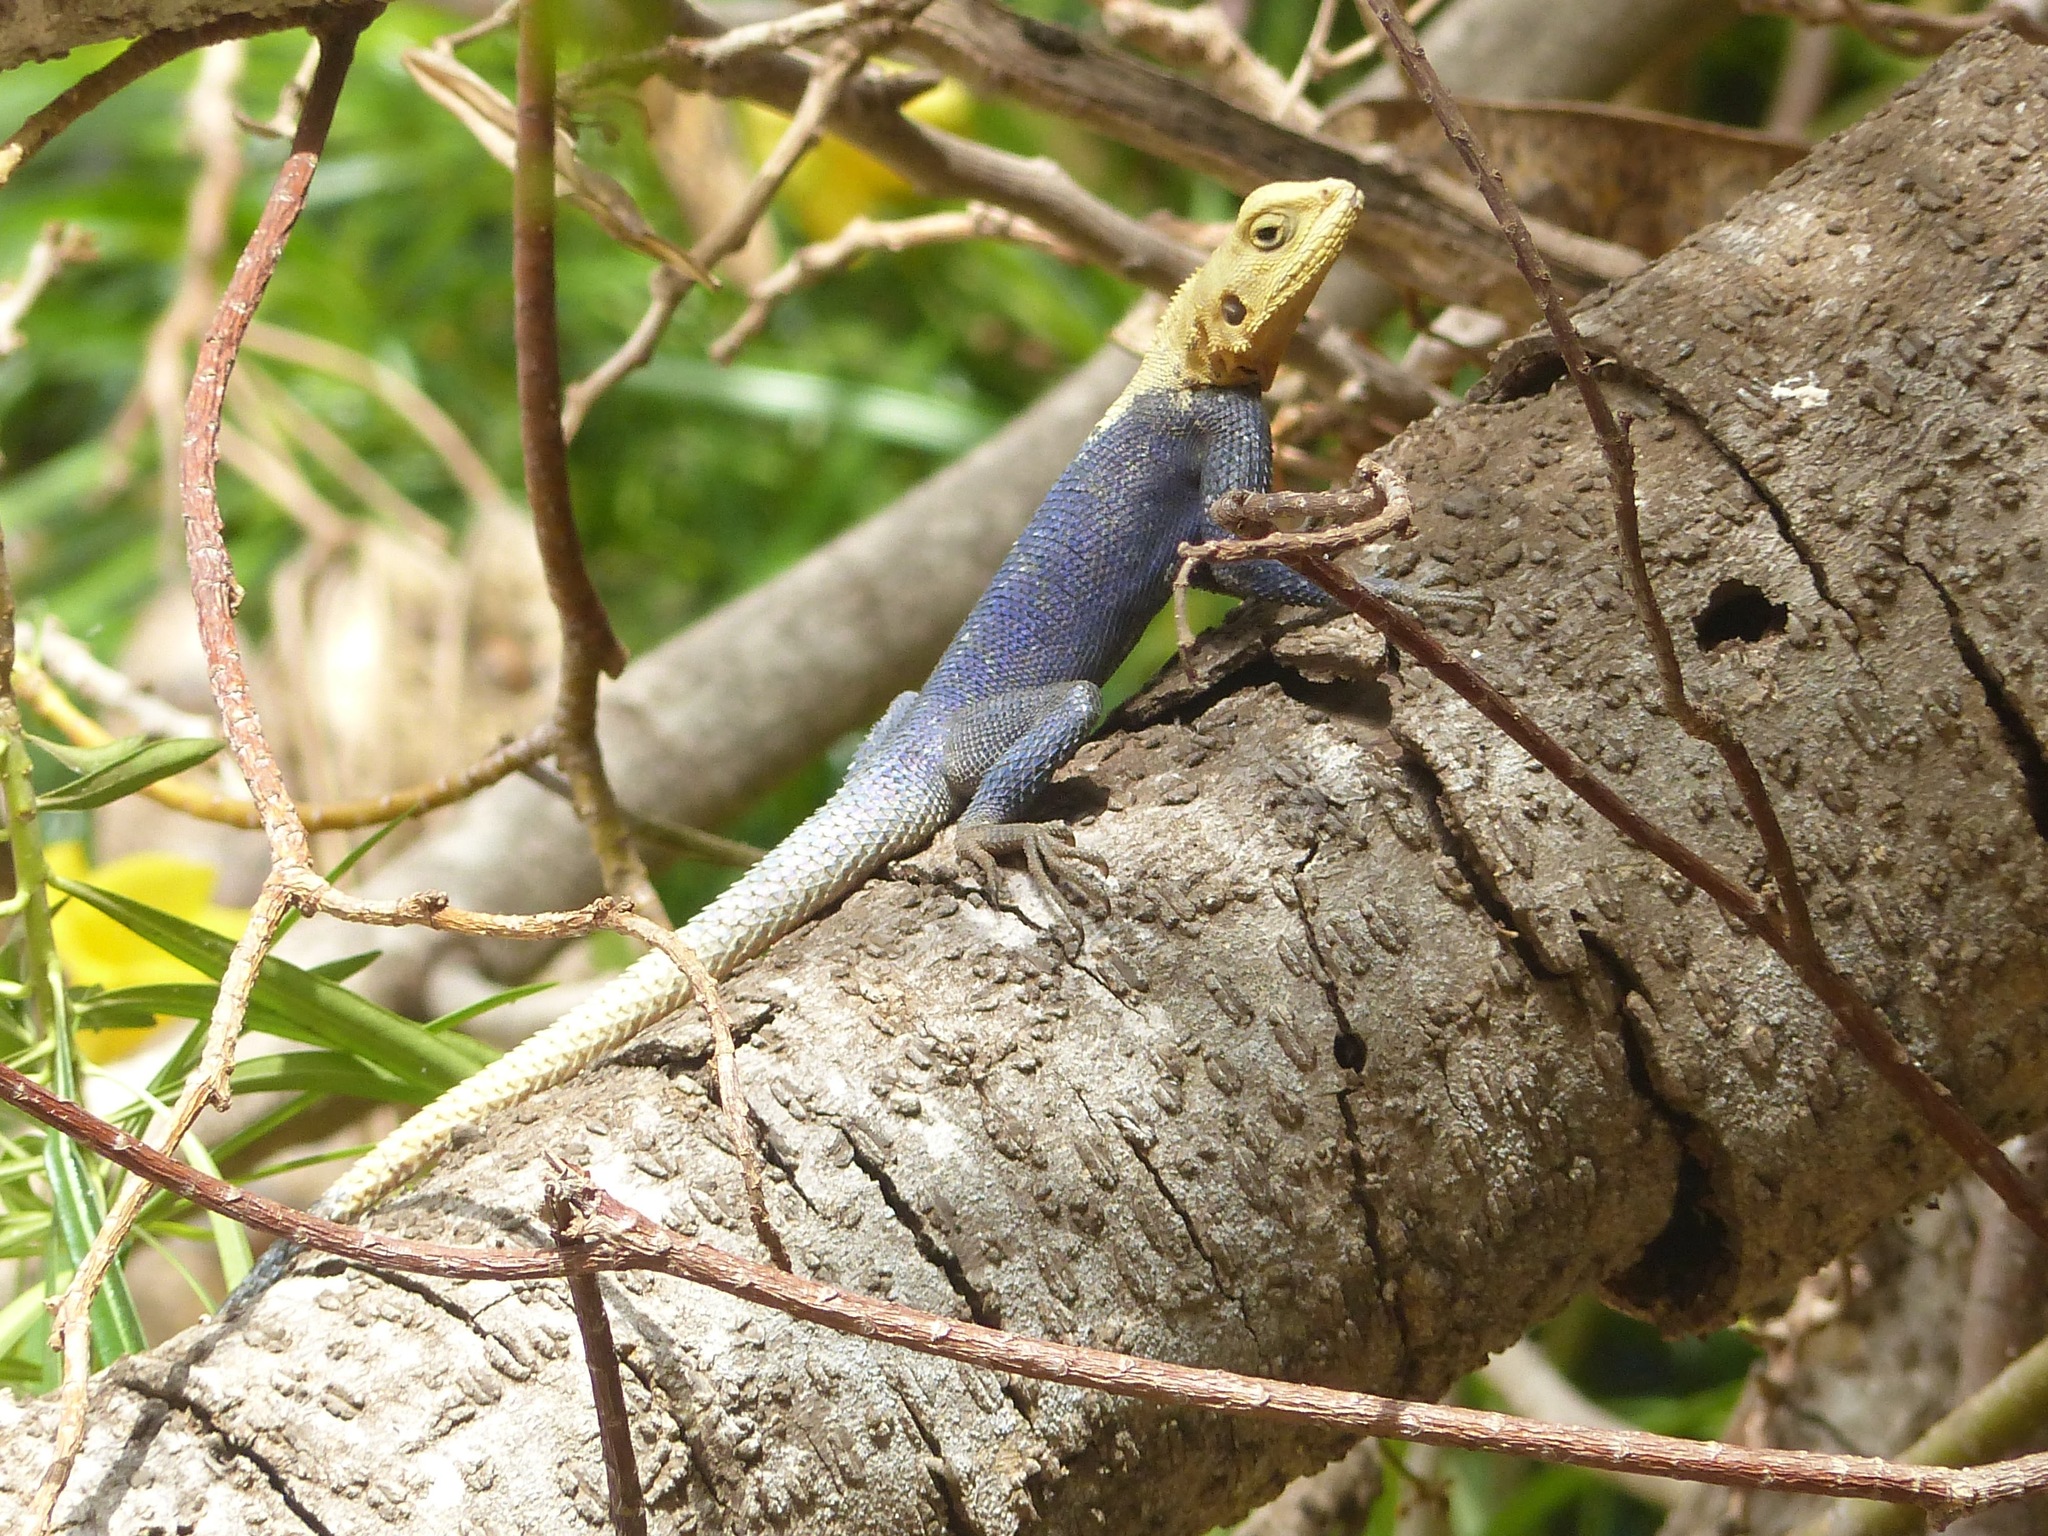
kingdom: Animalia
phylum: Chordata
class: Squamata
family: Agamidae
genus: Agama
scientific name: Agama agama
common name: Common agama
